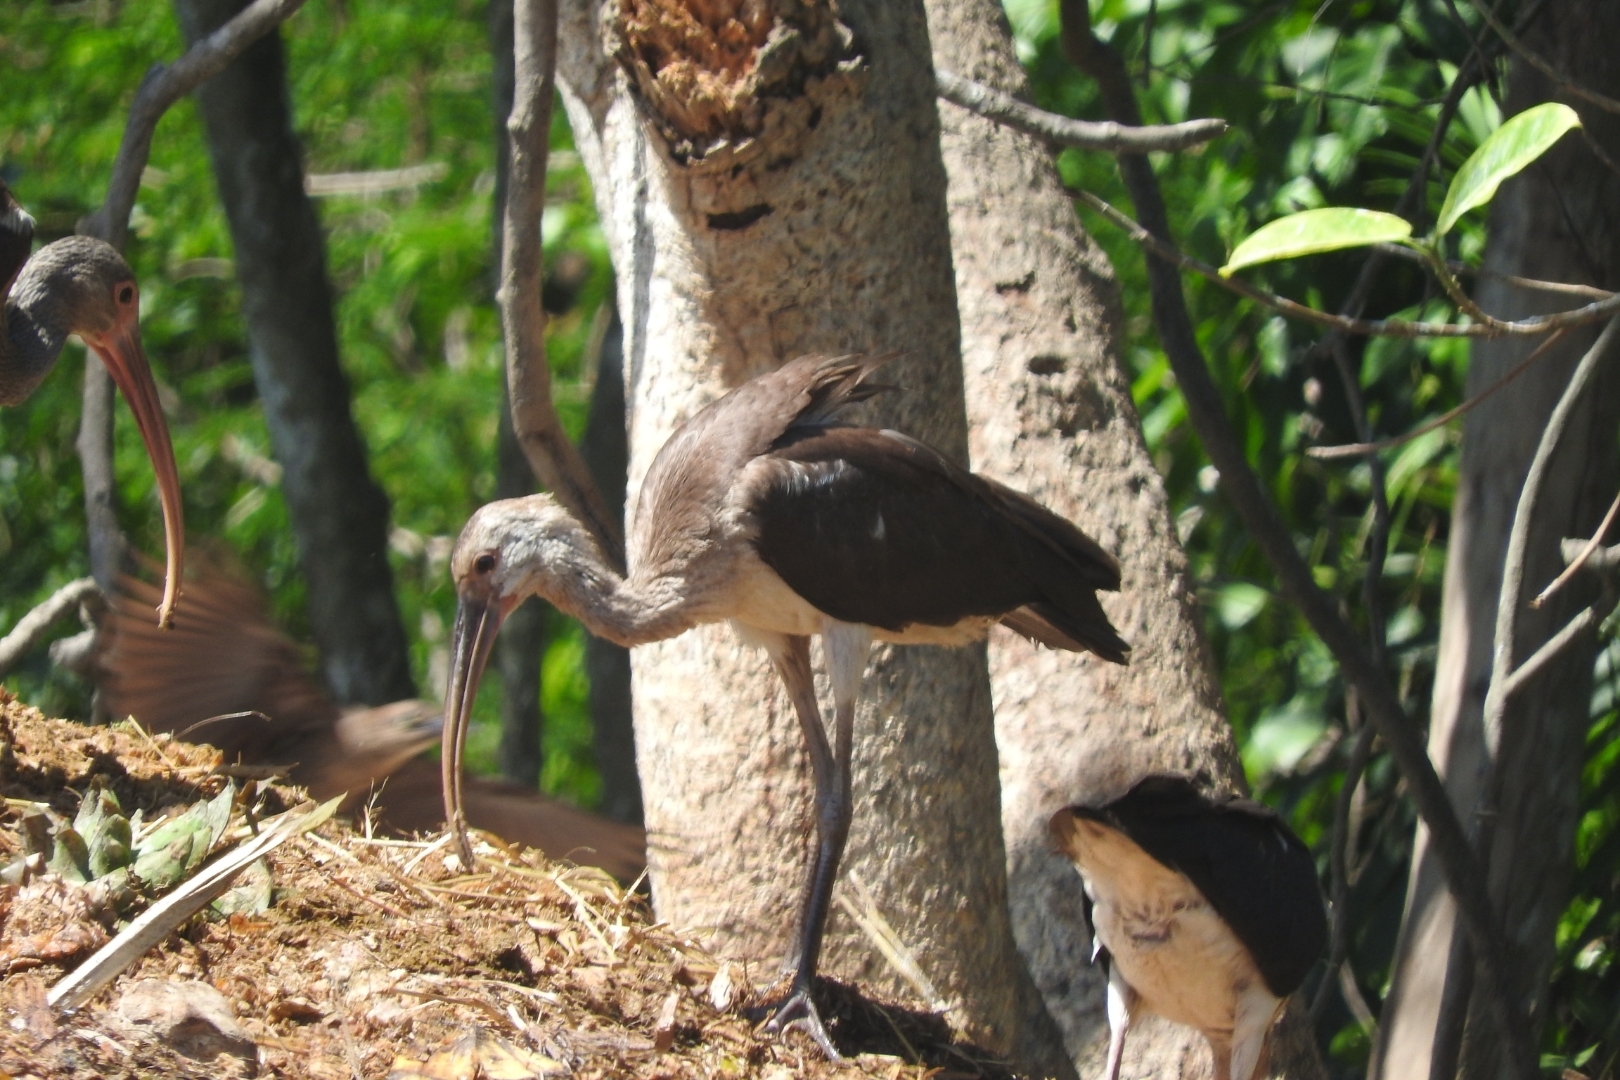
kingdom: Animalia
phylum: Chordata
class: Aves
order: Pelecaniformes
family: Threskiornithidae
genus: Eudocimus
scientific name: Eudocimus albus
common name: White ibis
